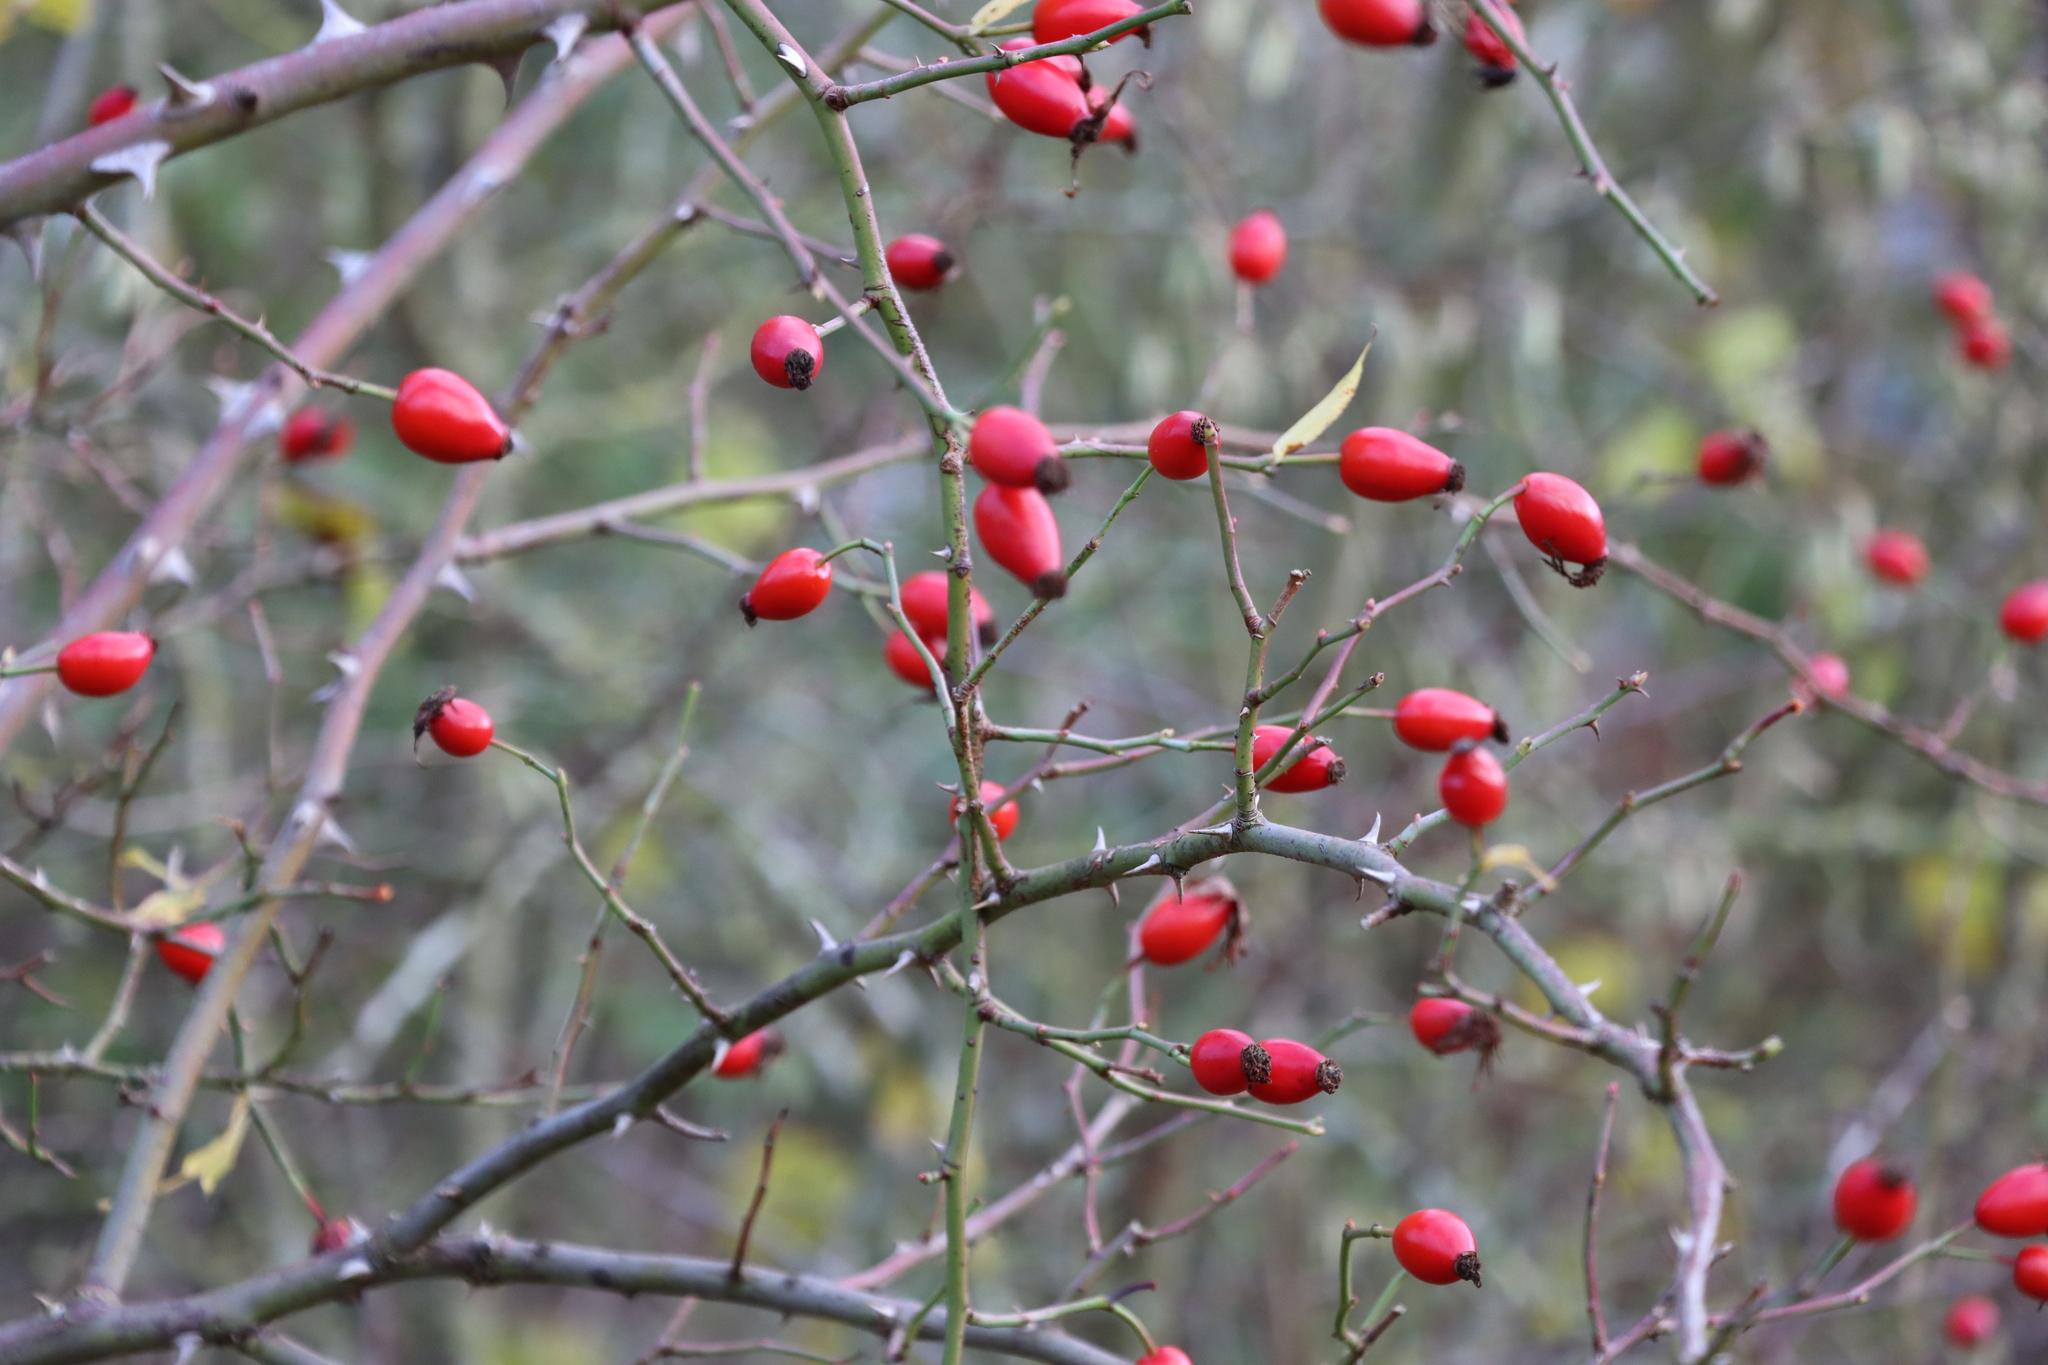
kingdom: Plantae
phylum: Tracheophyta
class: Magnoliopsida
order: Rosales
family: Rosaceae
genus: Rosa
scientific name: Rosa canina
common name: Dog rose
